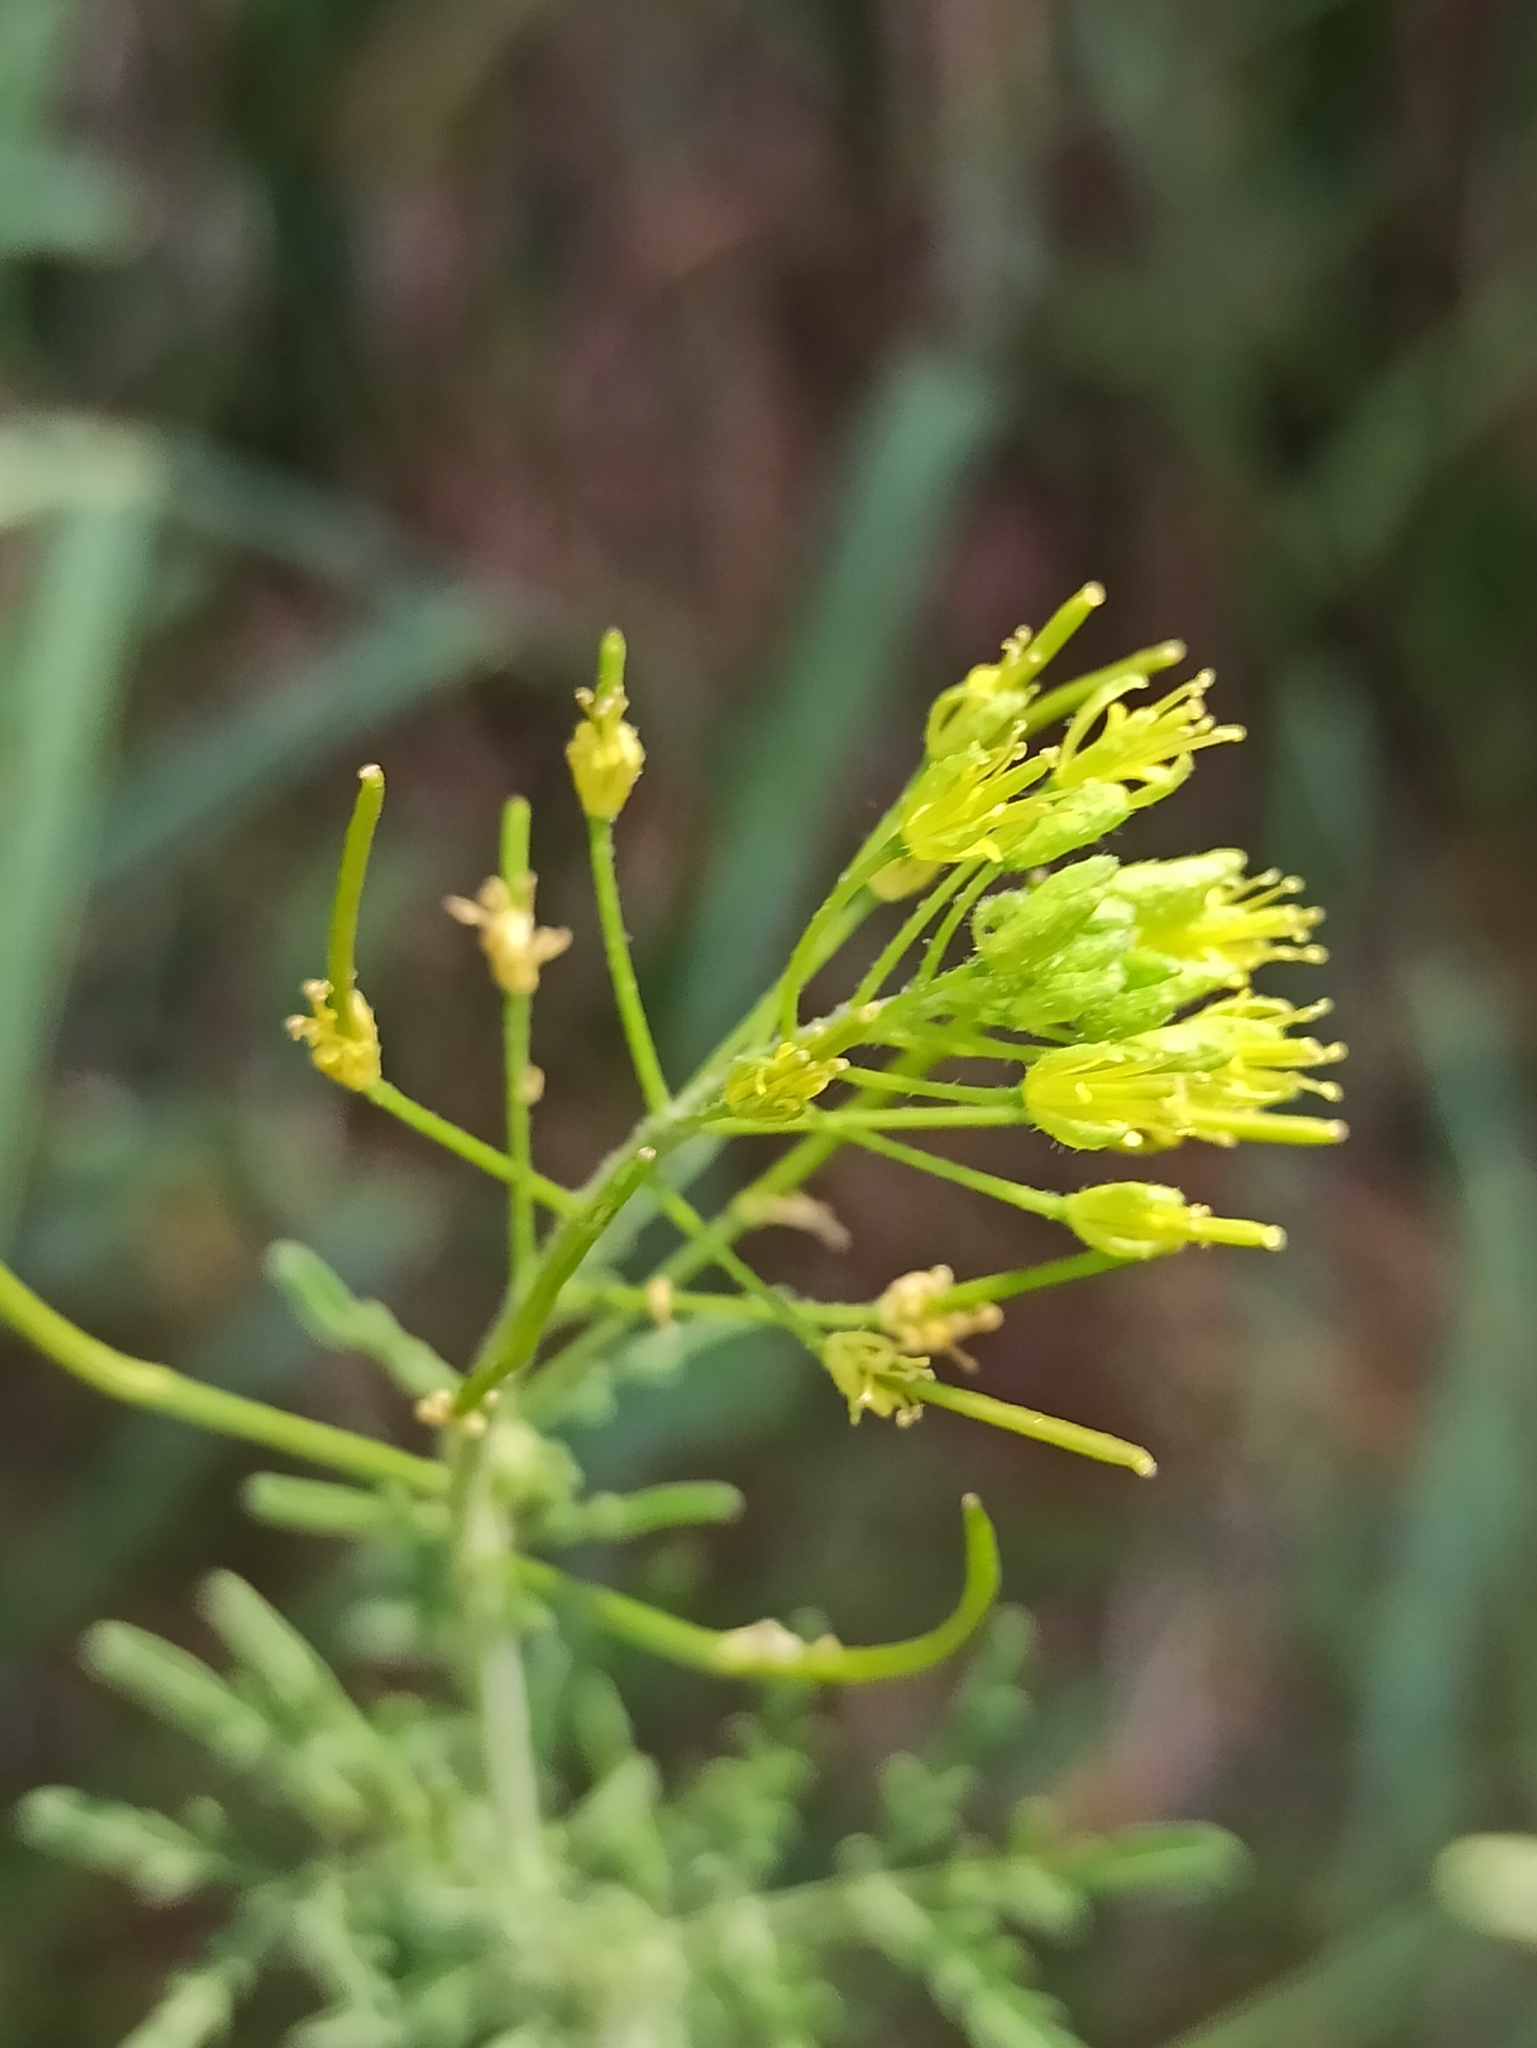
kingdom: Plantae
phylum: Tracheophyta
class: Magnoliopsida
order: Brassicales
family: Brassicaceae
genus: Descurainia
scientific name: Descurainia sophia
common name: Flixweed
